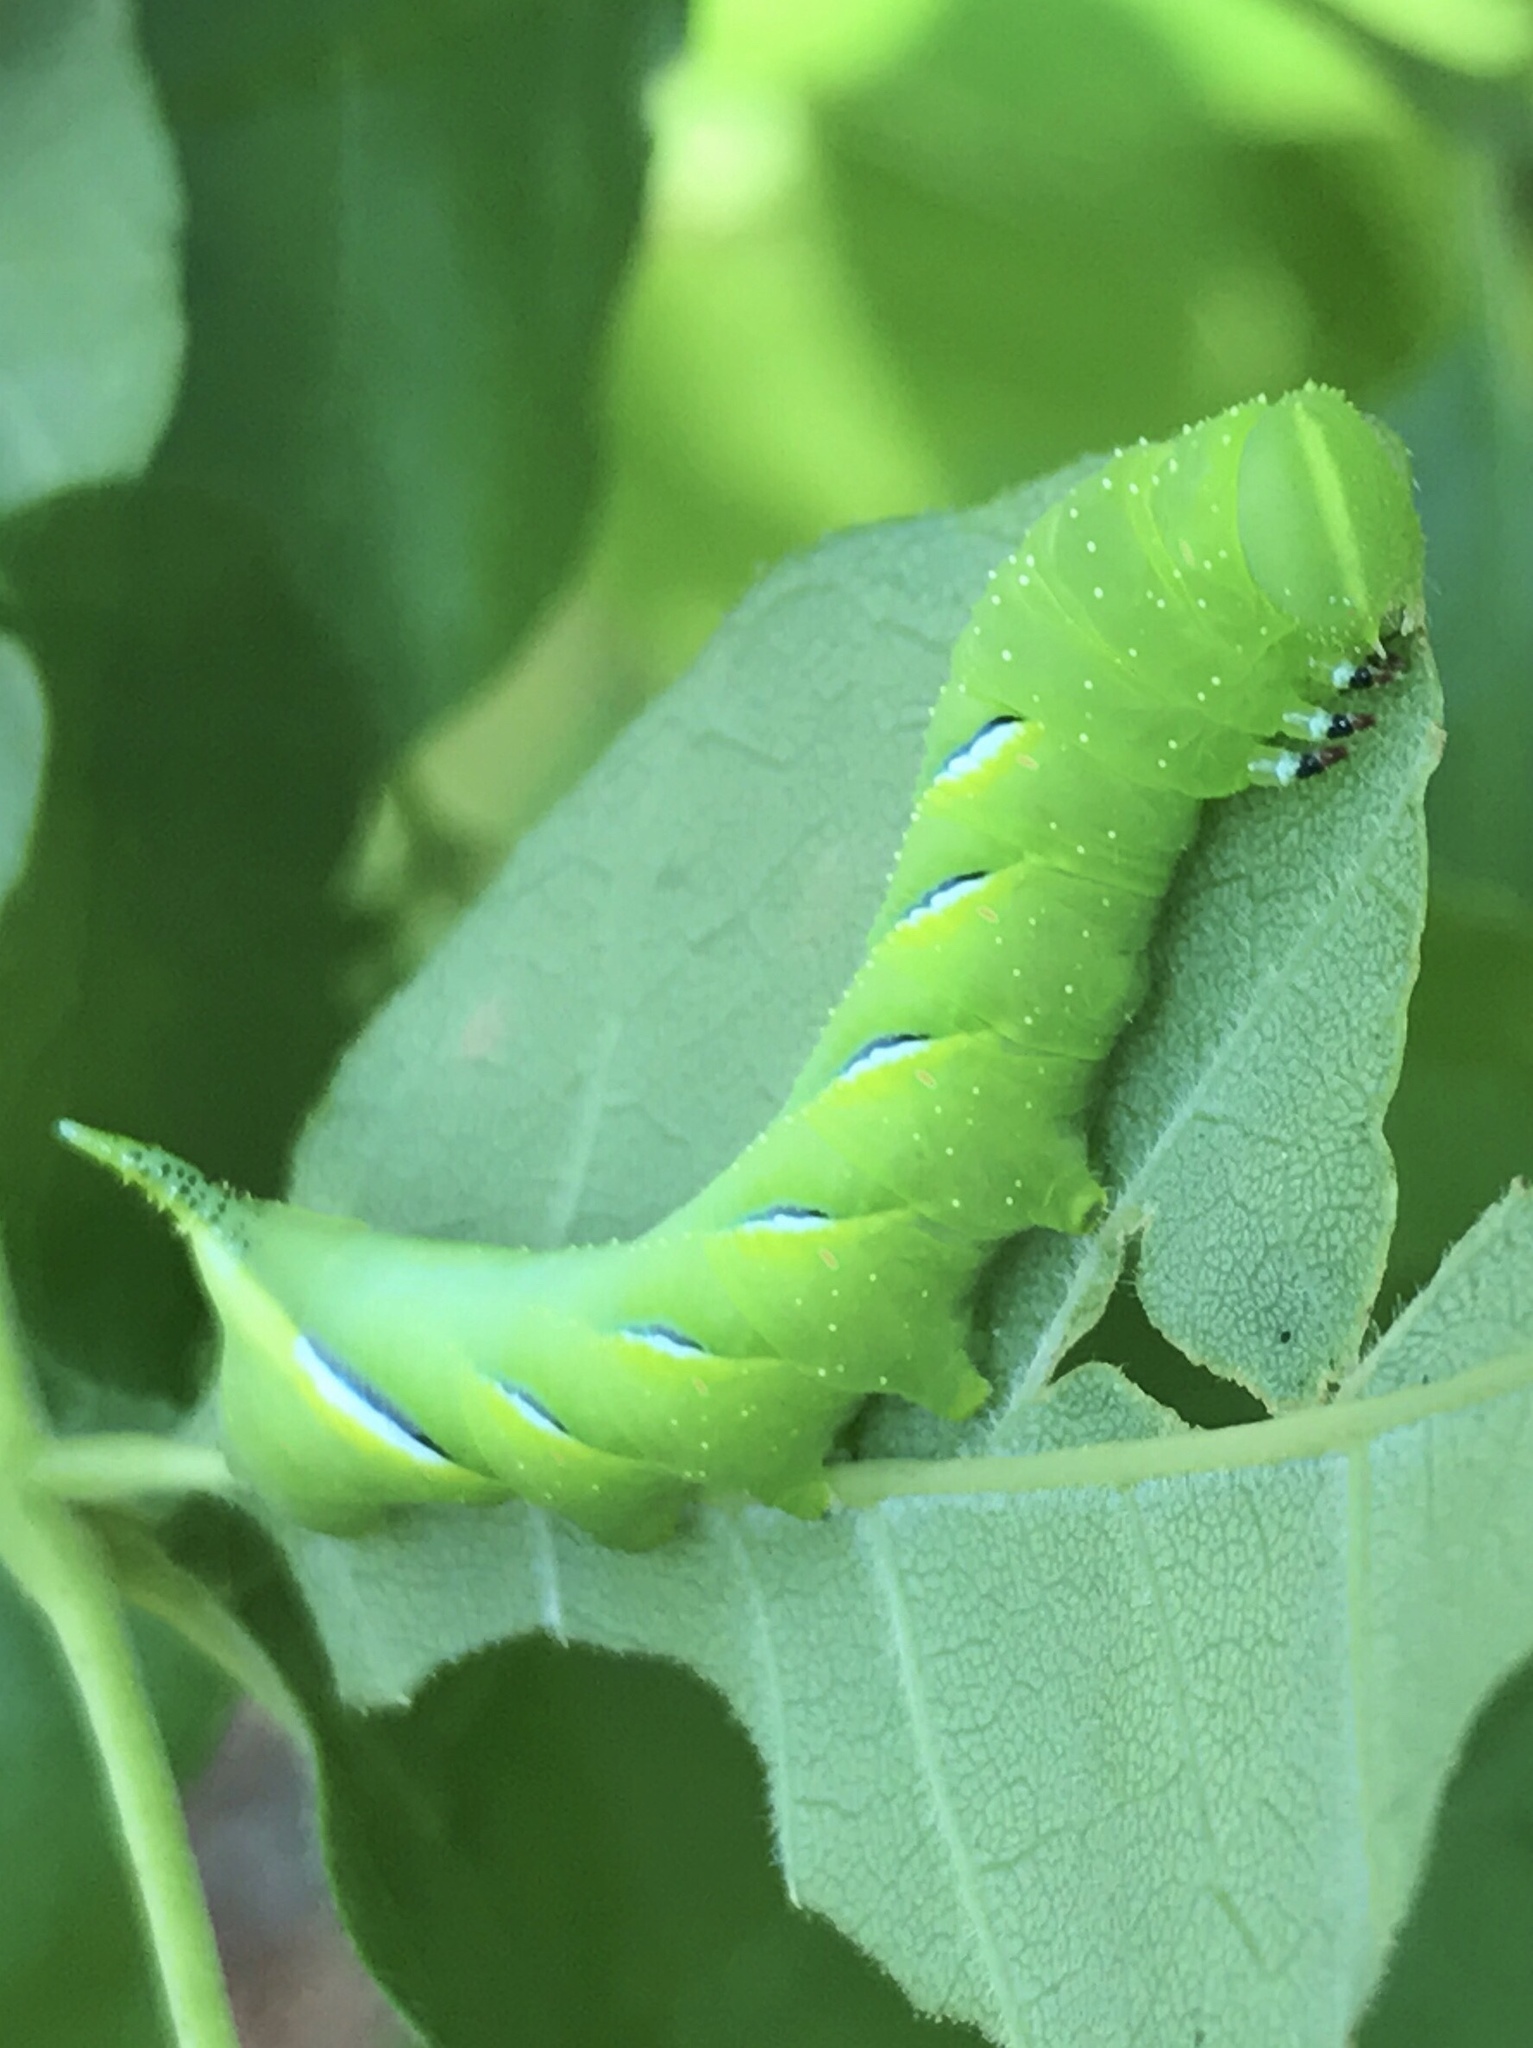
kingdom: Animalia
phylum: Arthropoda
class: Insecta
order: Lepidoptera
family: Sphingidae
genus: Sphinx
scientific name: Sphinx kalmiae
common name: Laurel sphinx
